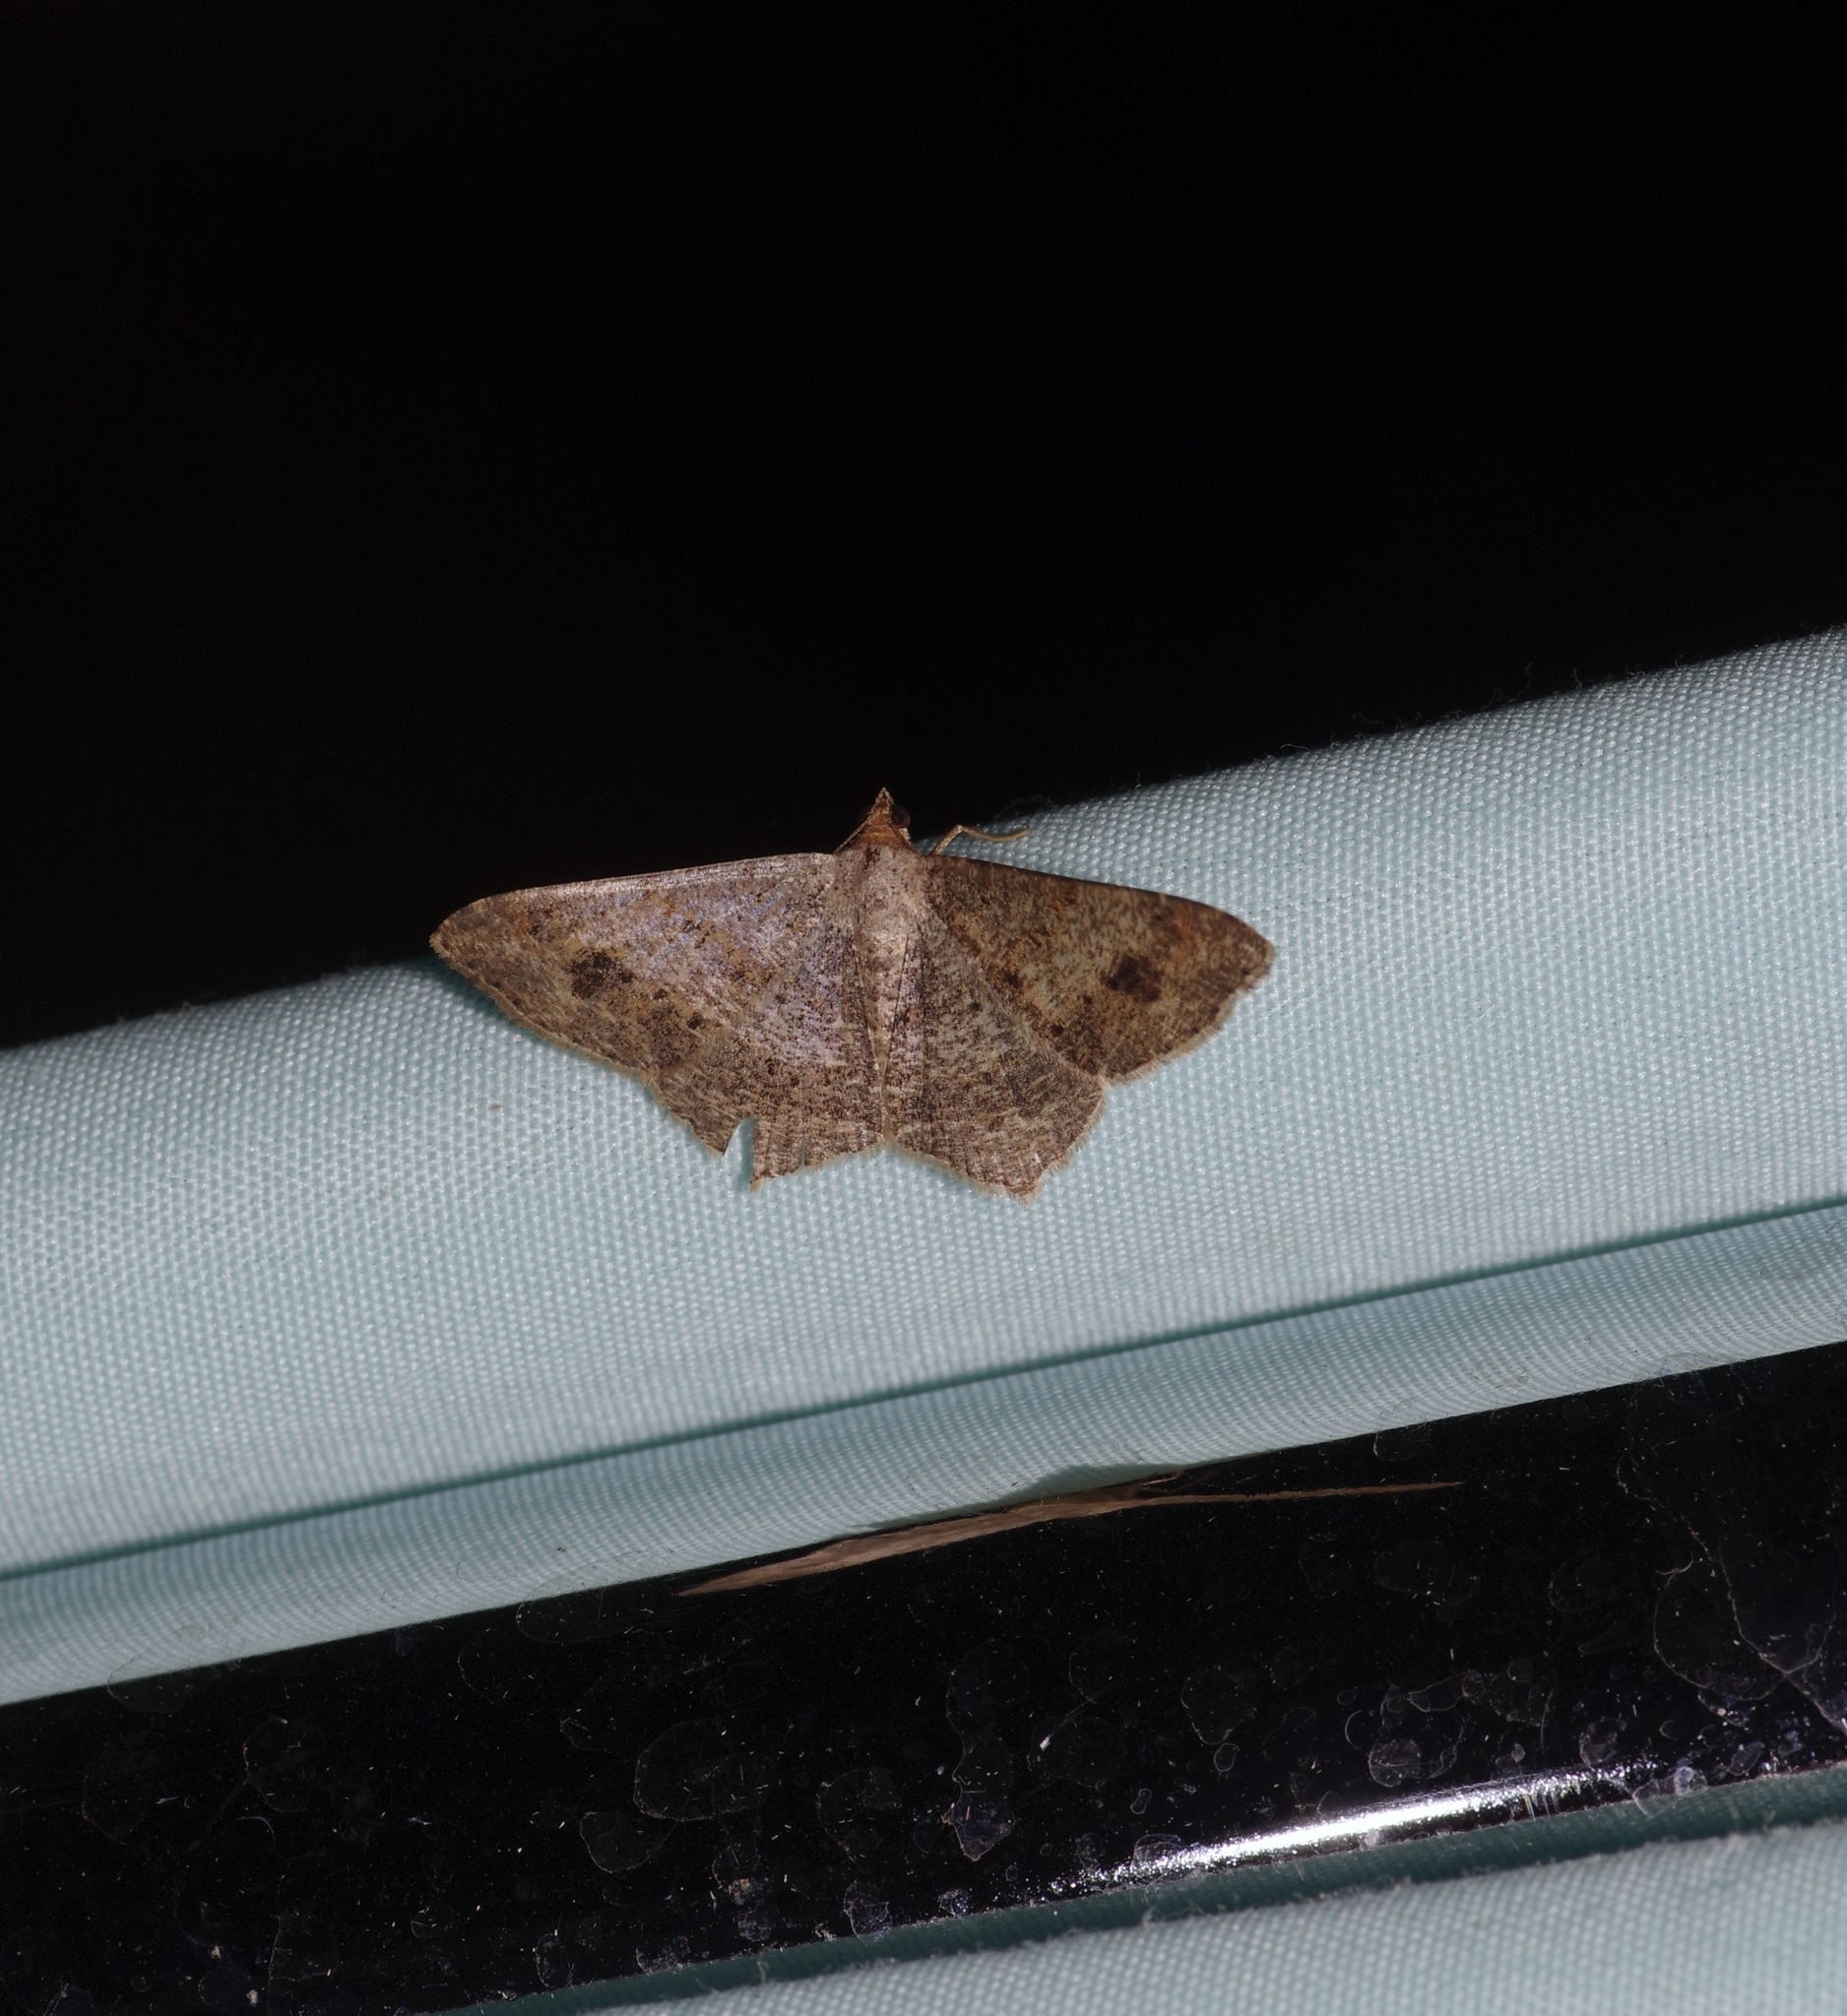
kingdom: Animalia
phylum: Arthropoda
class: Insecta
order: Lepidoptera
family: Geometridae
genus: Macaria
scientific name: Macaria abydata
